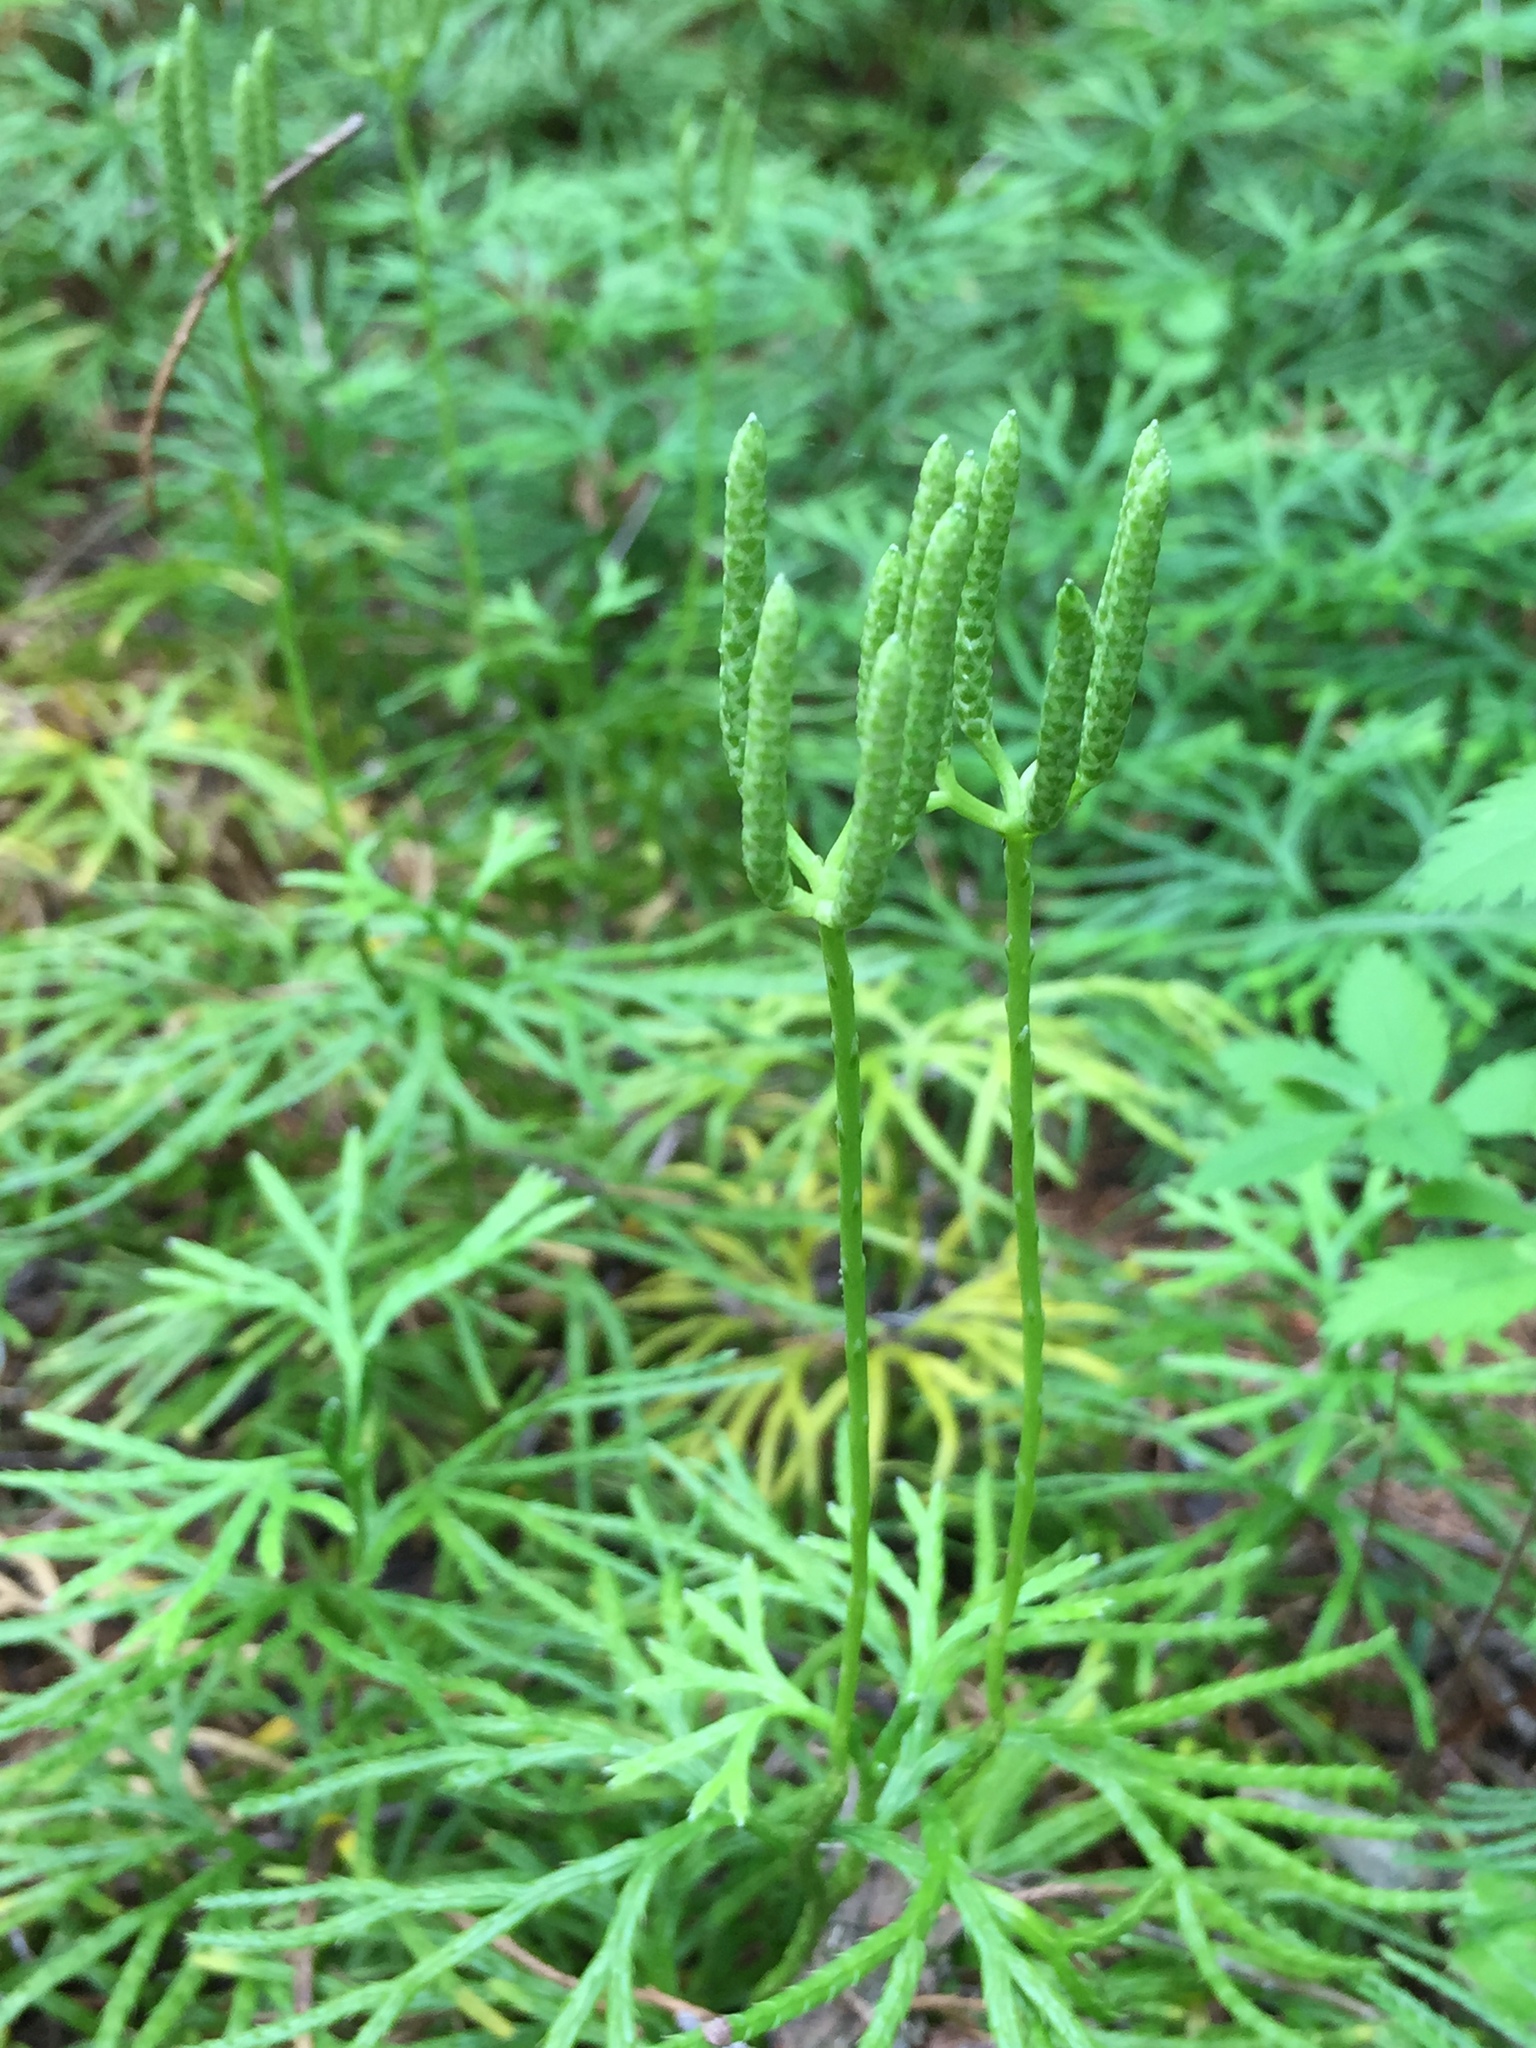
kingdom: Plantae
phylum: Tracheophyta
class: Lycopodiopsida
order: Lycopodiales
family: Lycopodiaceae
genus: Diphasiastrum
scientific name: Diphasiastrum digitatum
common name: Southern running-pine
